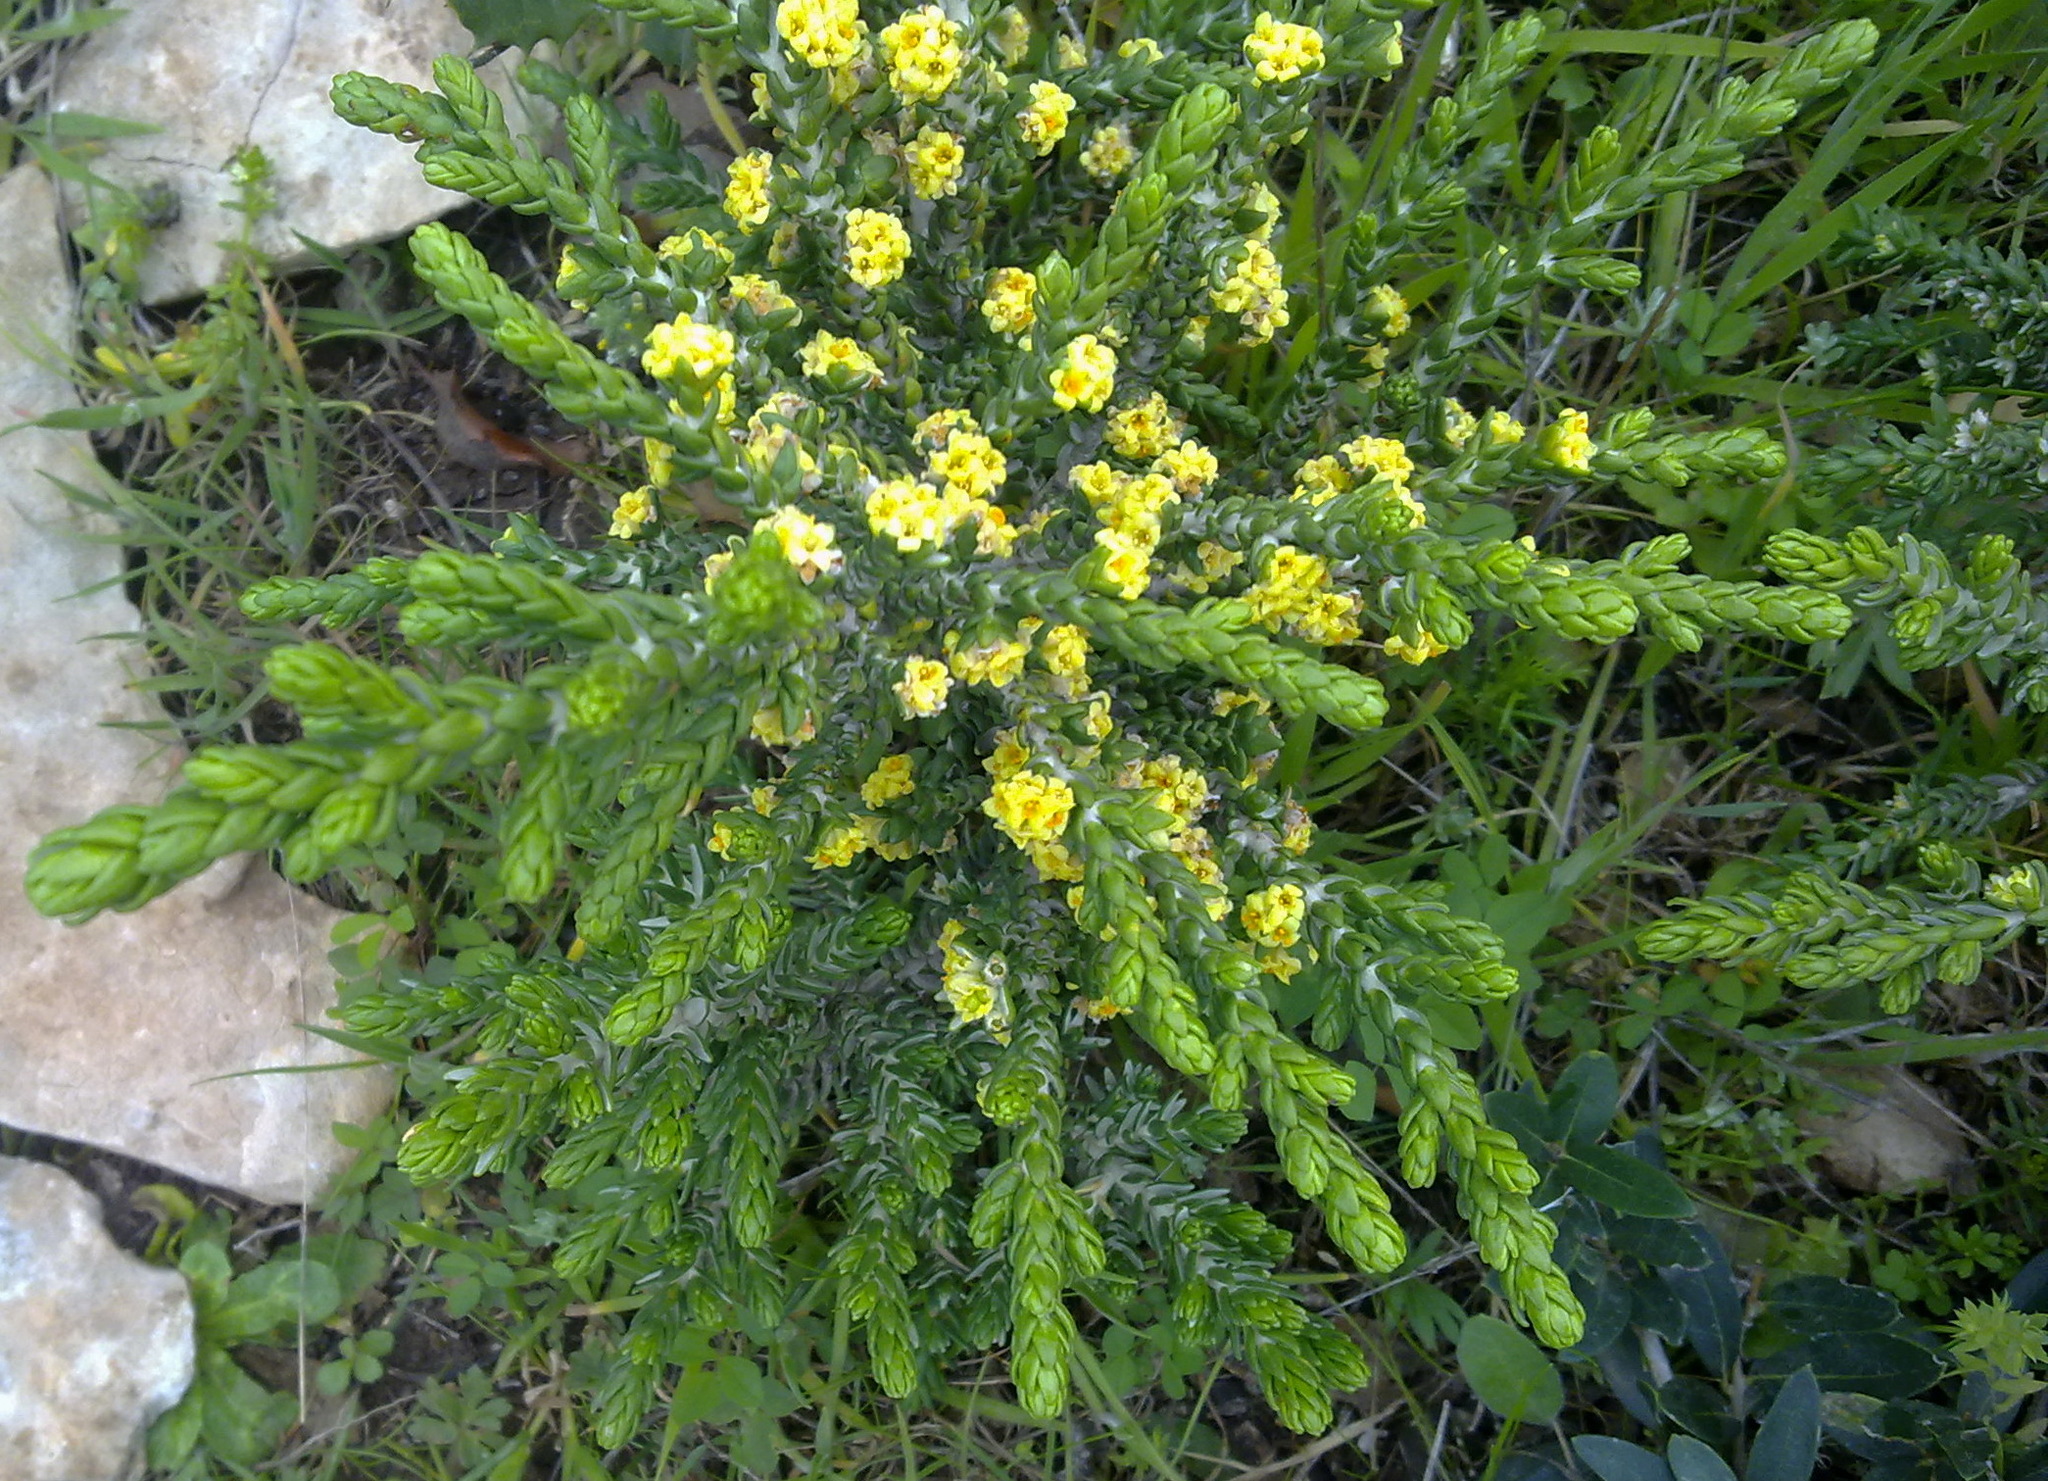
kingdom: Plantae
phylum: Tracheophyta
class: Magnoliopsida
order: Malvales
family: Thymelaeaceae
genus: Thymelaea
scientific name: Thymelaea hirsuta
